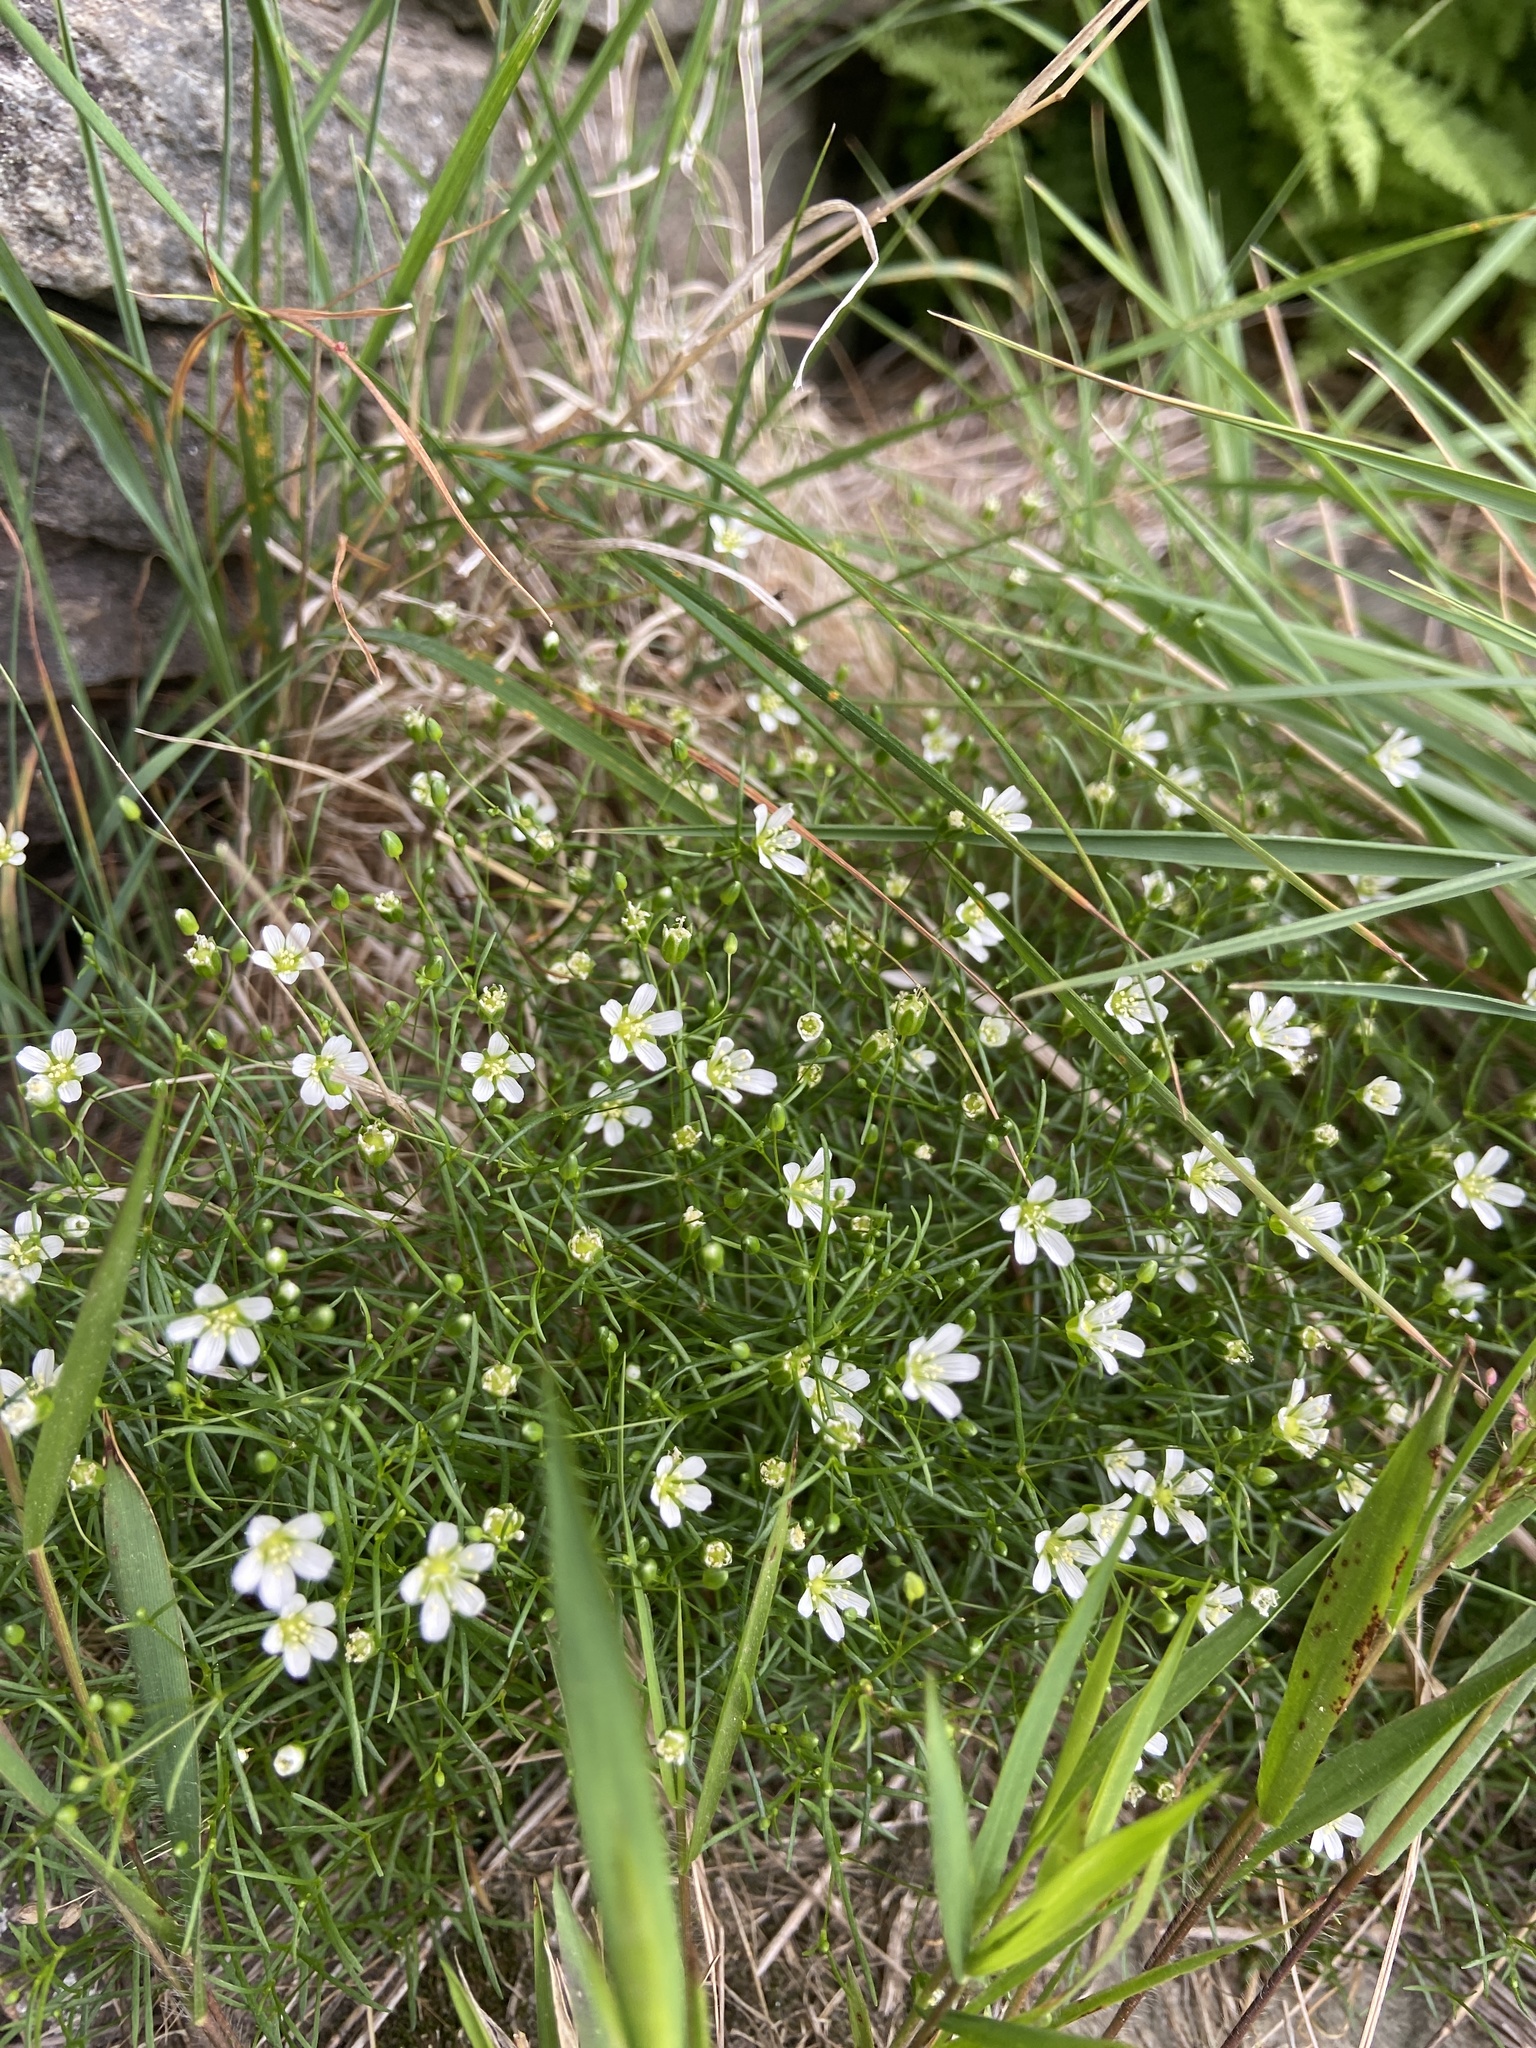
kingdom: Plantae
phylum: Tracheophyta
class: Magnoliopsida
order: Caryophyllales
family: Caryophyllaceae
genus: Geocarpon
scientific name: Geocarpon groenlandicum
